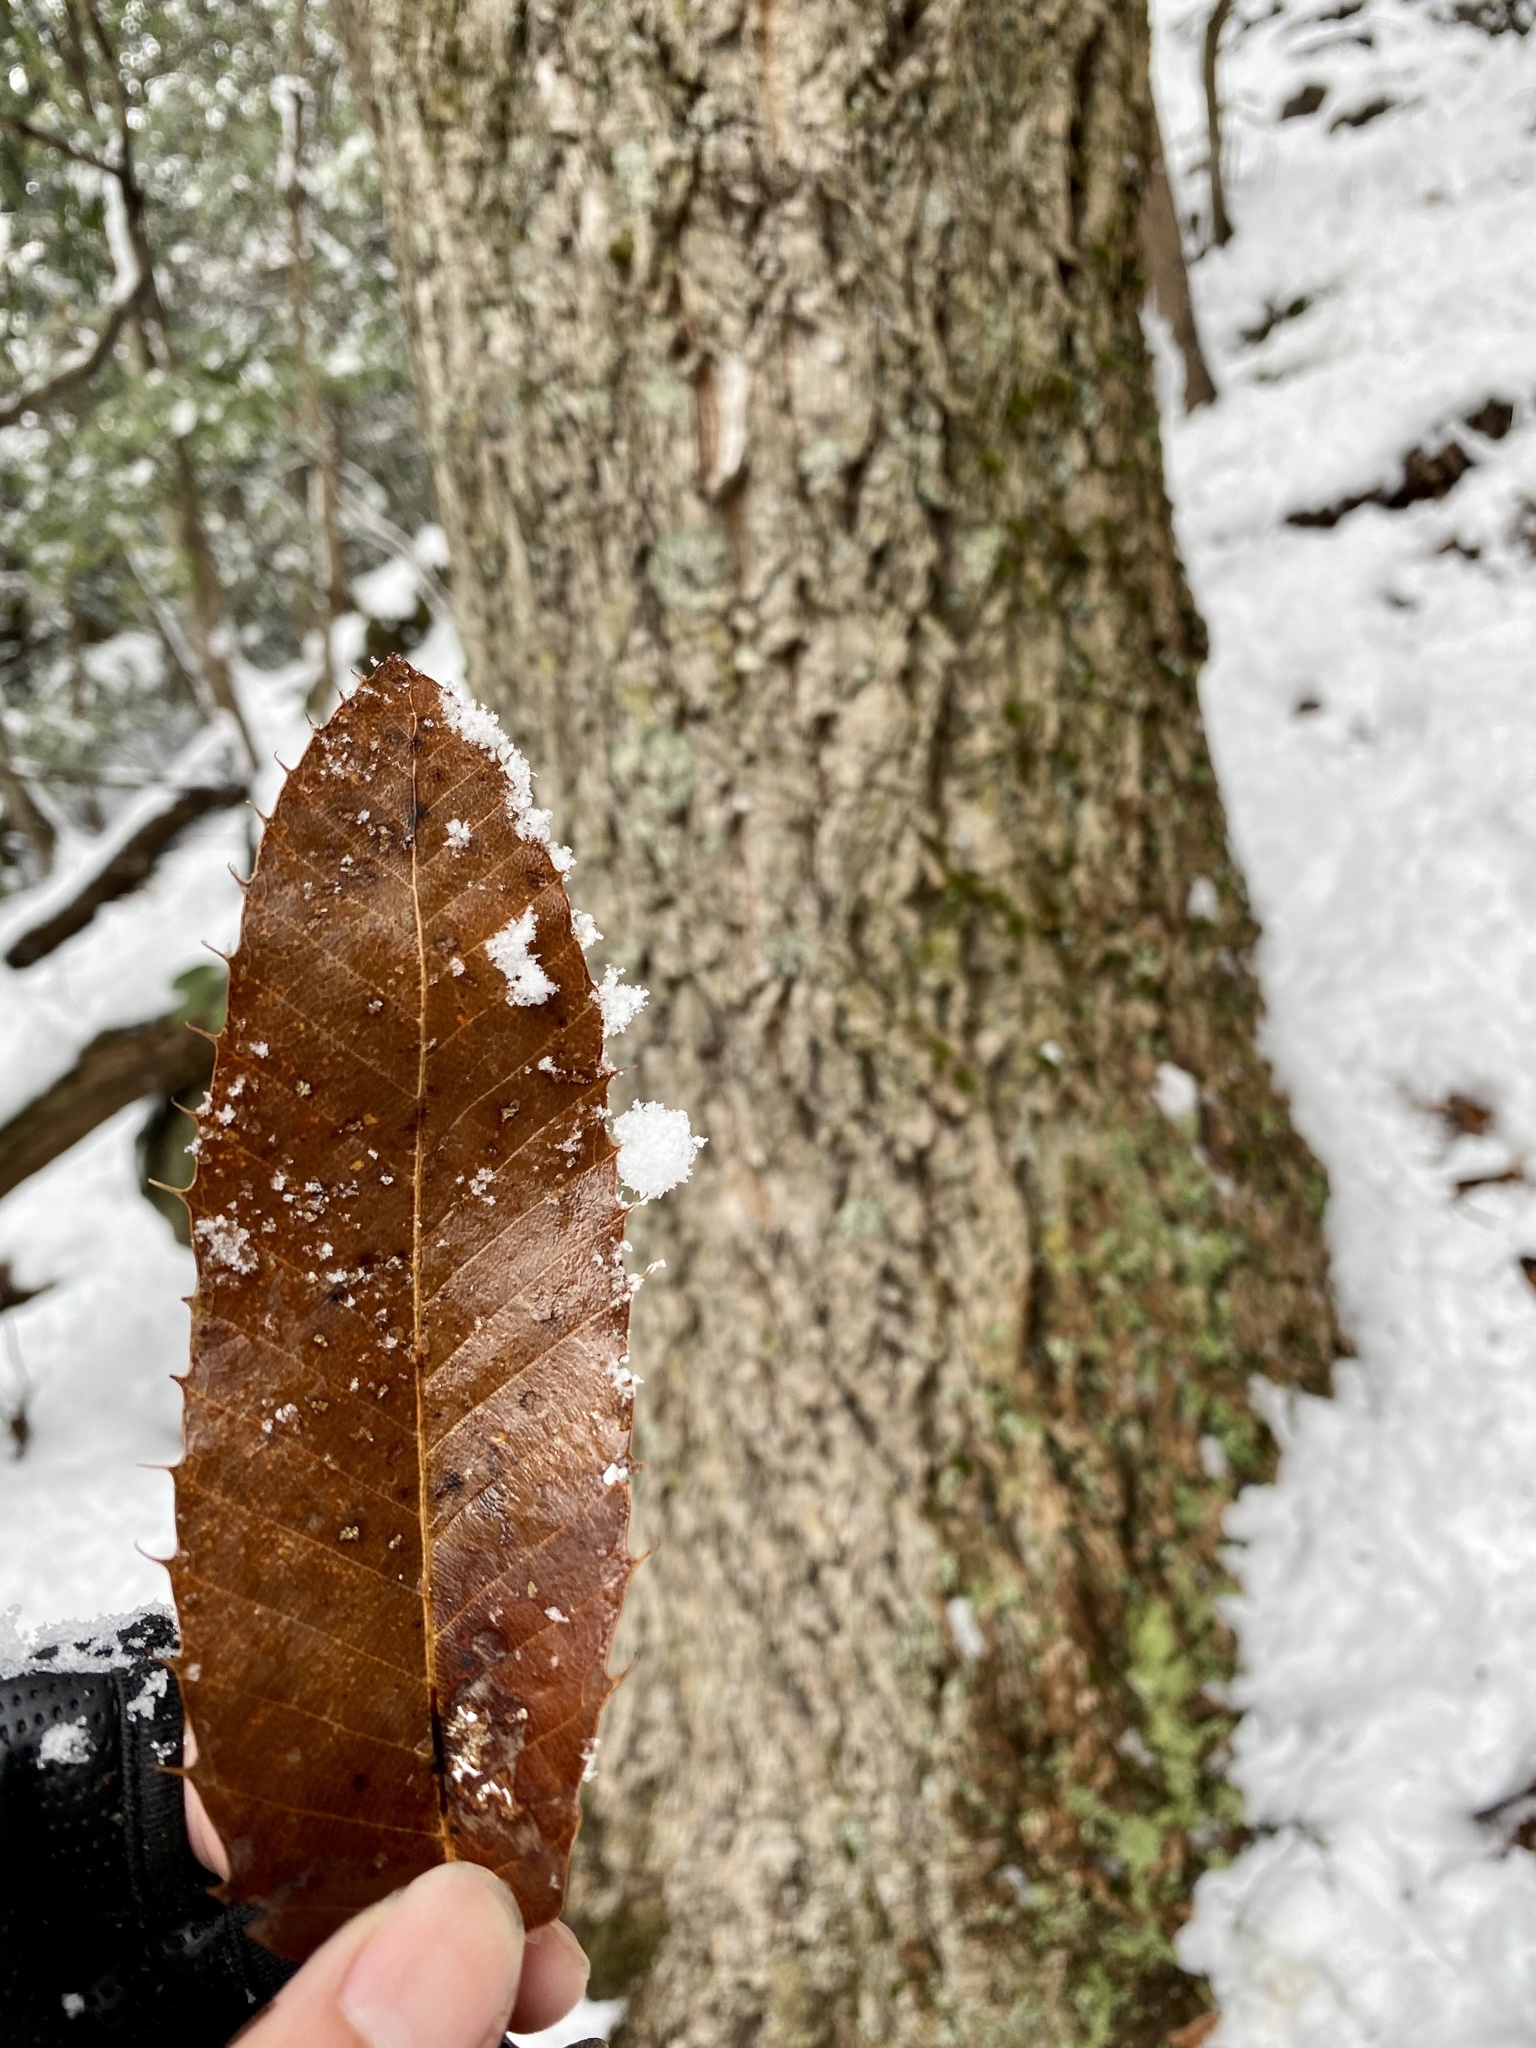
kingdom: Plantae
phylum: Tracheophyta
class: Magnoliopsida
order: Fagales
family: Fagaceae
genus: Quercus
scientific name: Quercus acutissima
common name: Sawtooth oak
